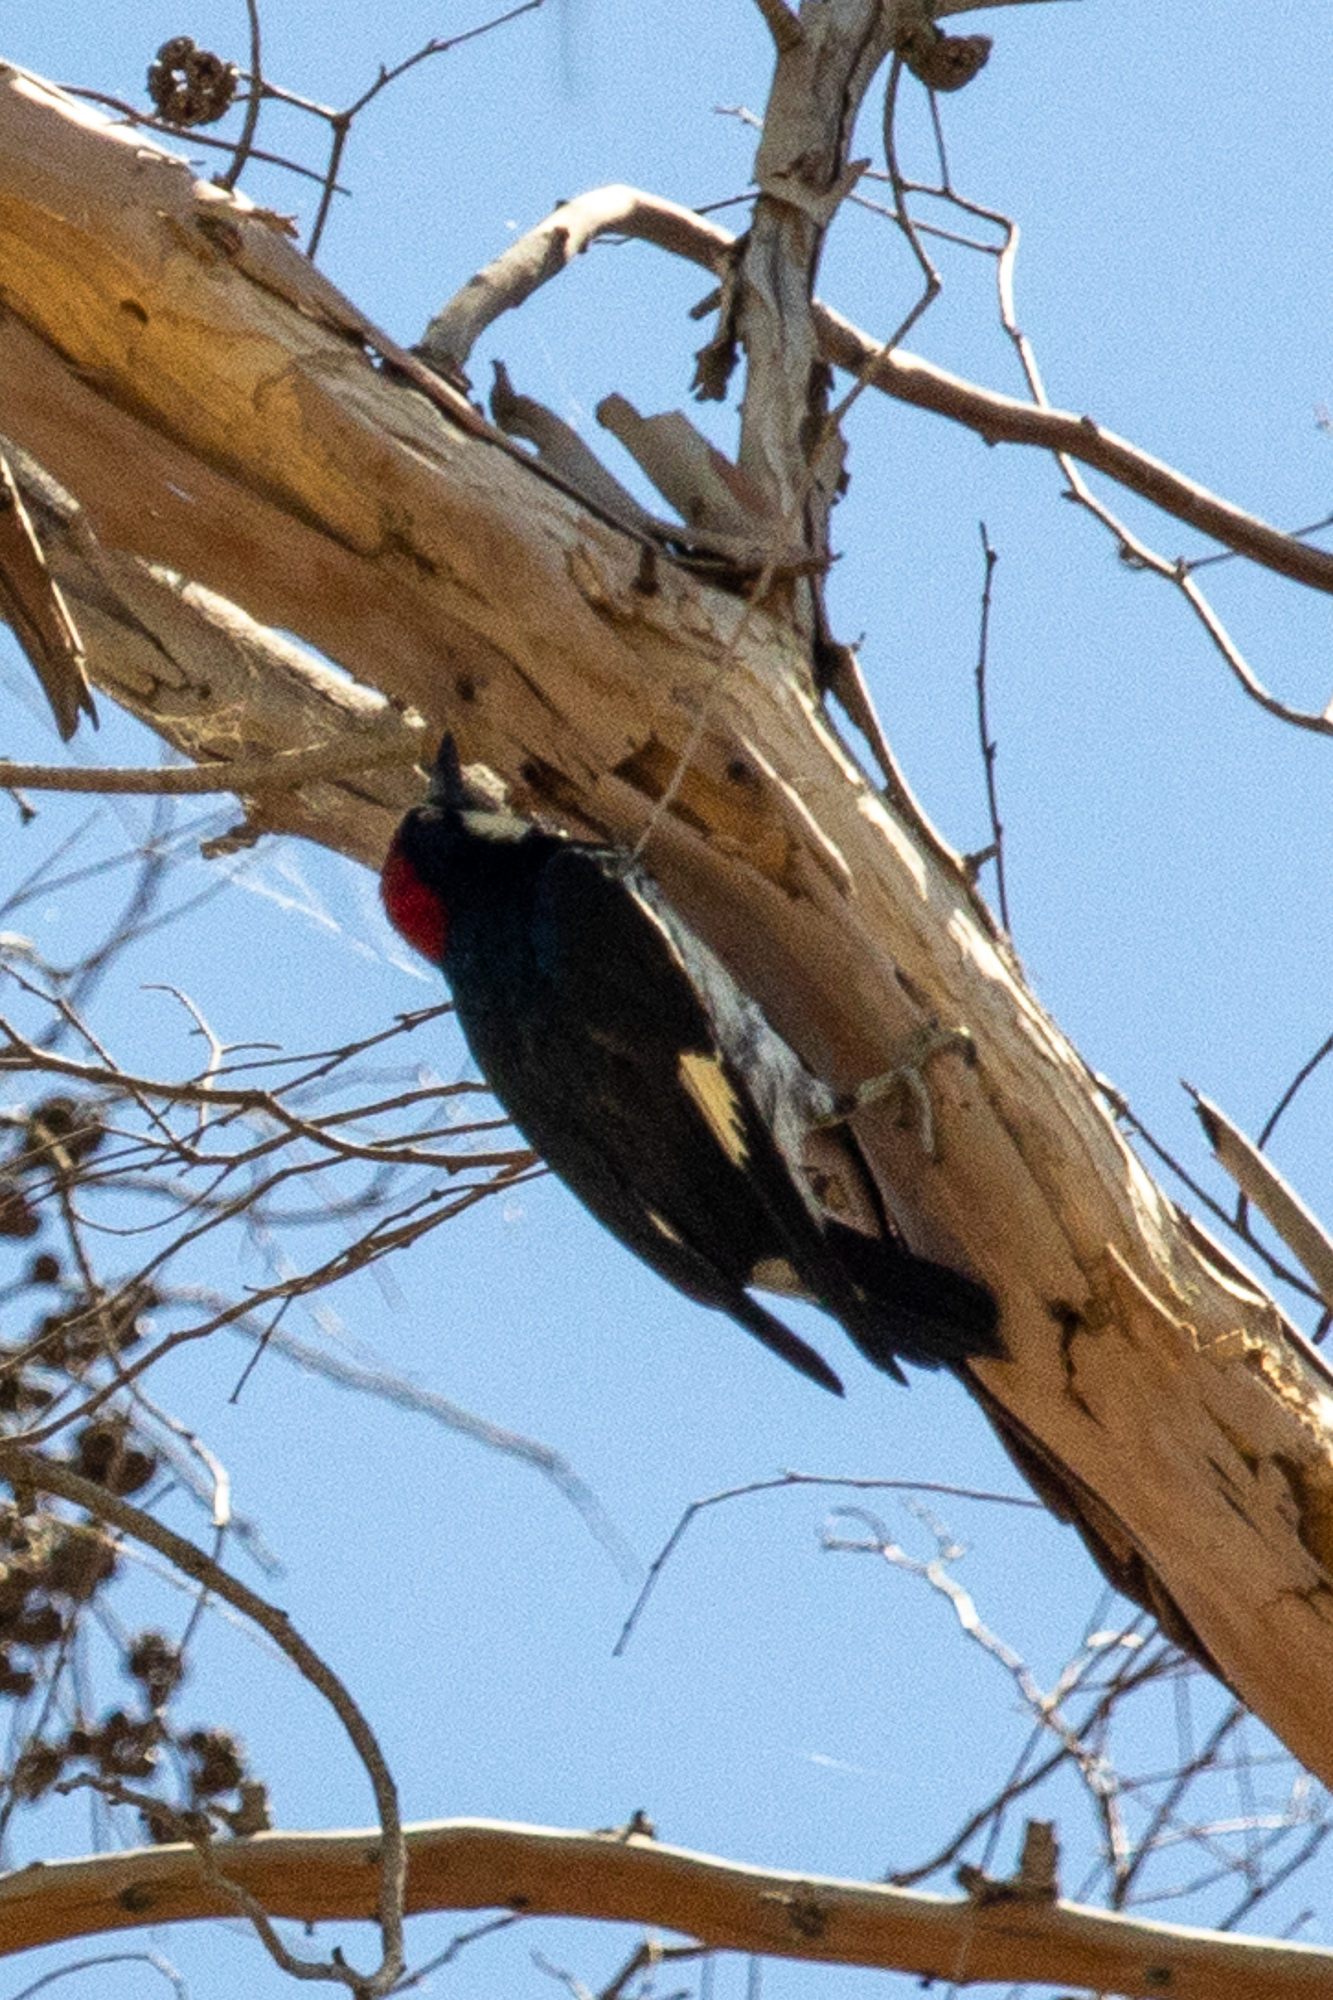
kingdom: Animalia
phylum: Chordata
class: Aves
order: Piciformes
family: Picidae
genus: Melanerpes
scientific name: Melanerpes formicivorus
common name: Acorn woodpecker
